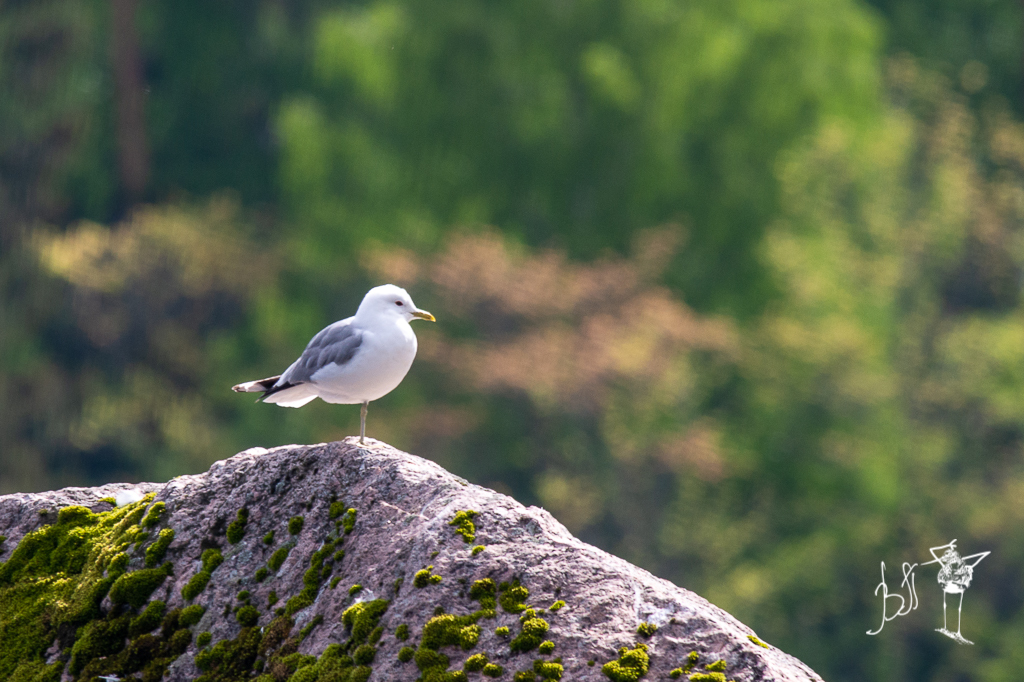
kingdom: Animalia
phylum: Chordata
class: Aves
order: Charadriiformes
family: Laridae
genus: Larus
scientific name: Larus canus
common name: Mew gull
